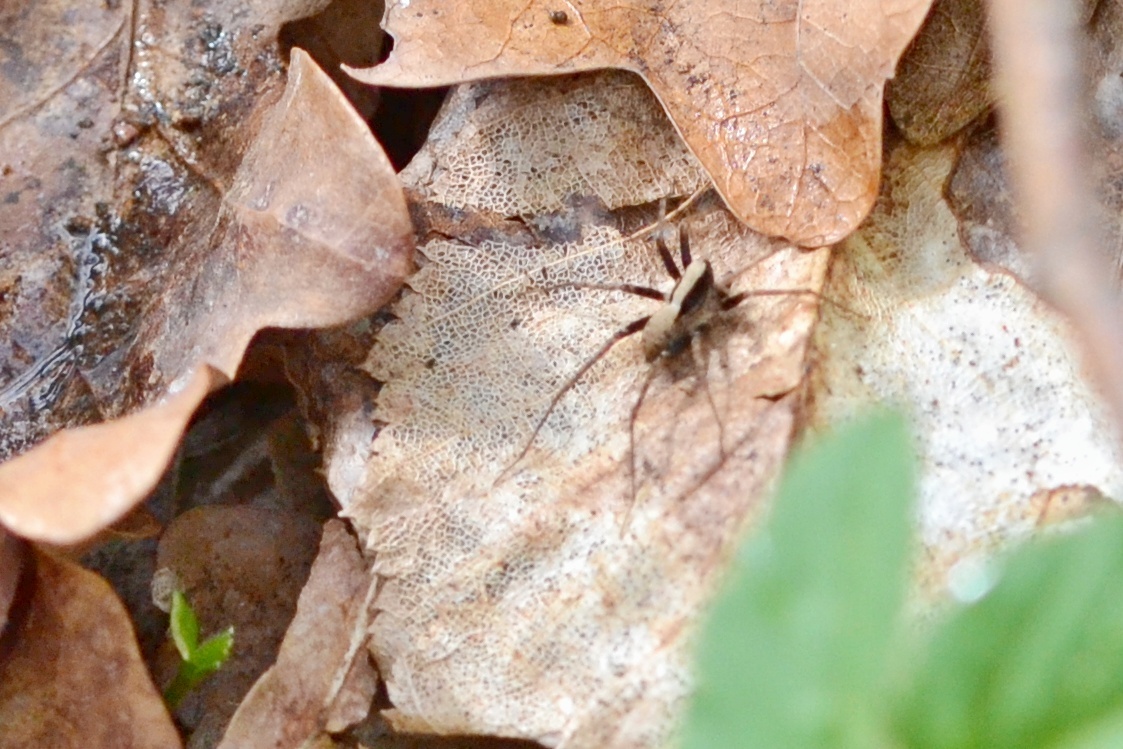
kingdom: Animalia
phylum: Arthropoda
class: Arachnida
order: Araneae
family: Lycosidae
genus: Pardosa
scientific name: Pardosa
